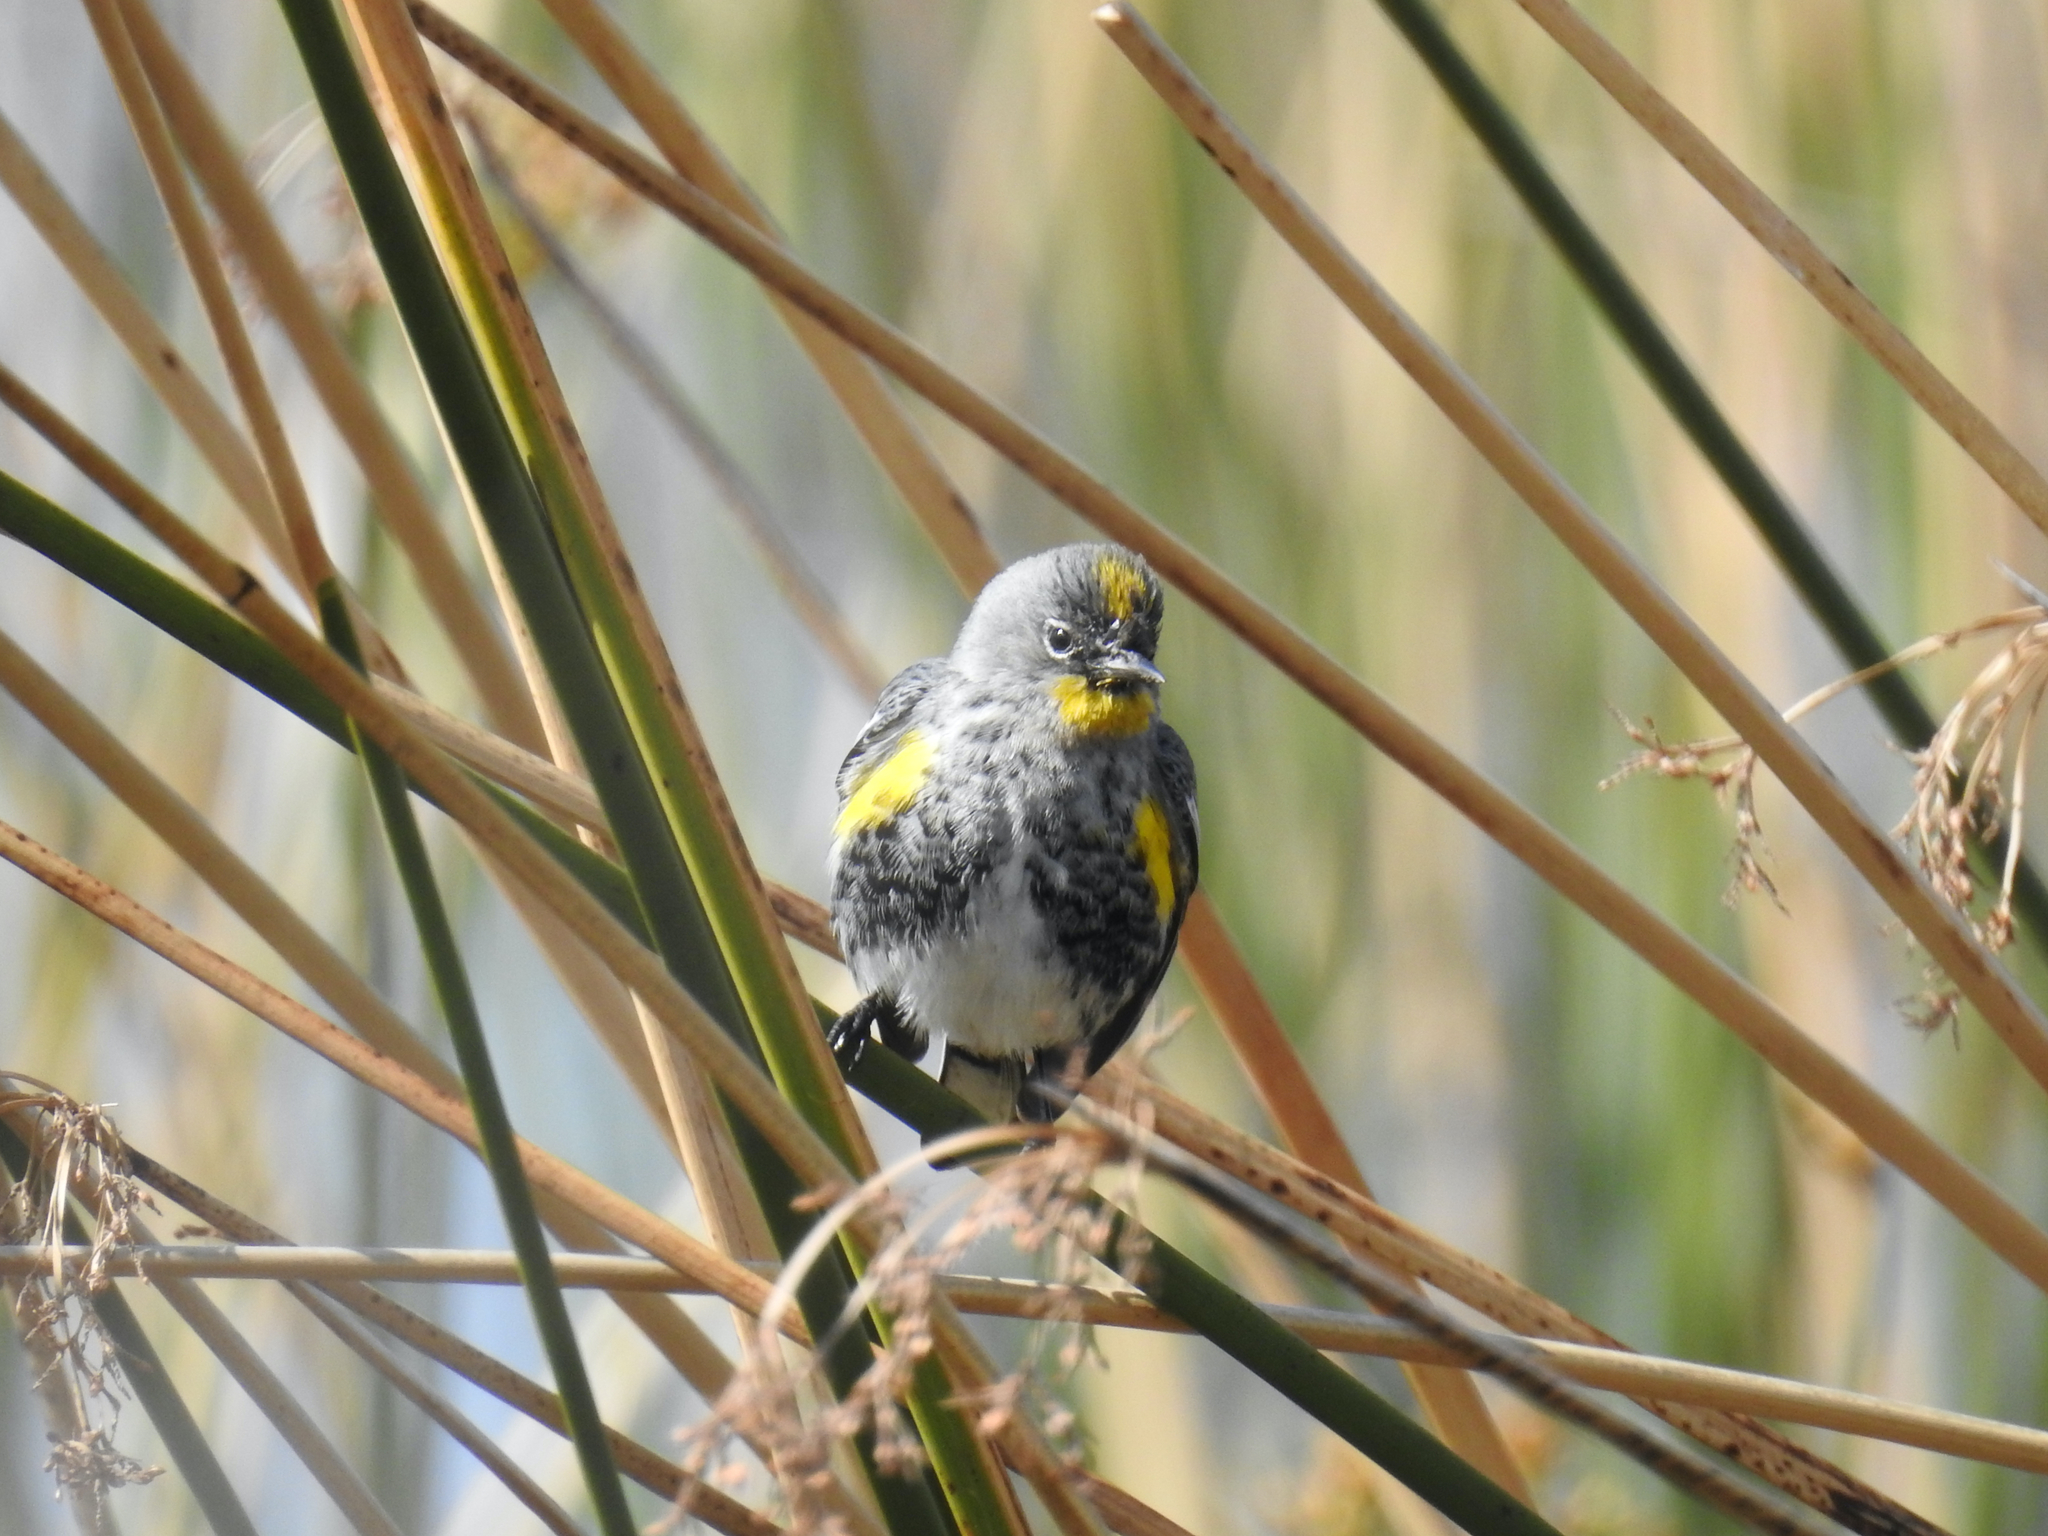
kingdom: Animalia
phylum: Chordata
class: Aves
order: Passeriformes
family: Parulidae
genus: Setophaga
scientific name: Setophaga coronata
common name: Myrtle warbler
